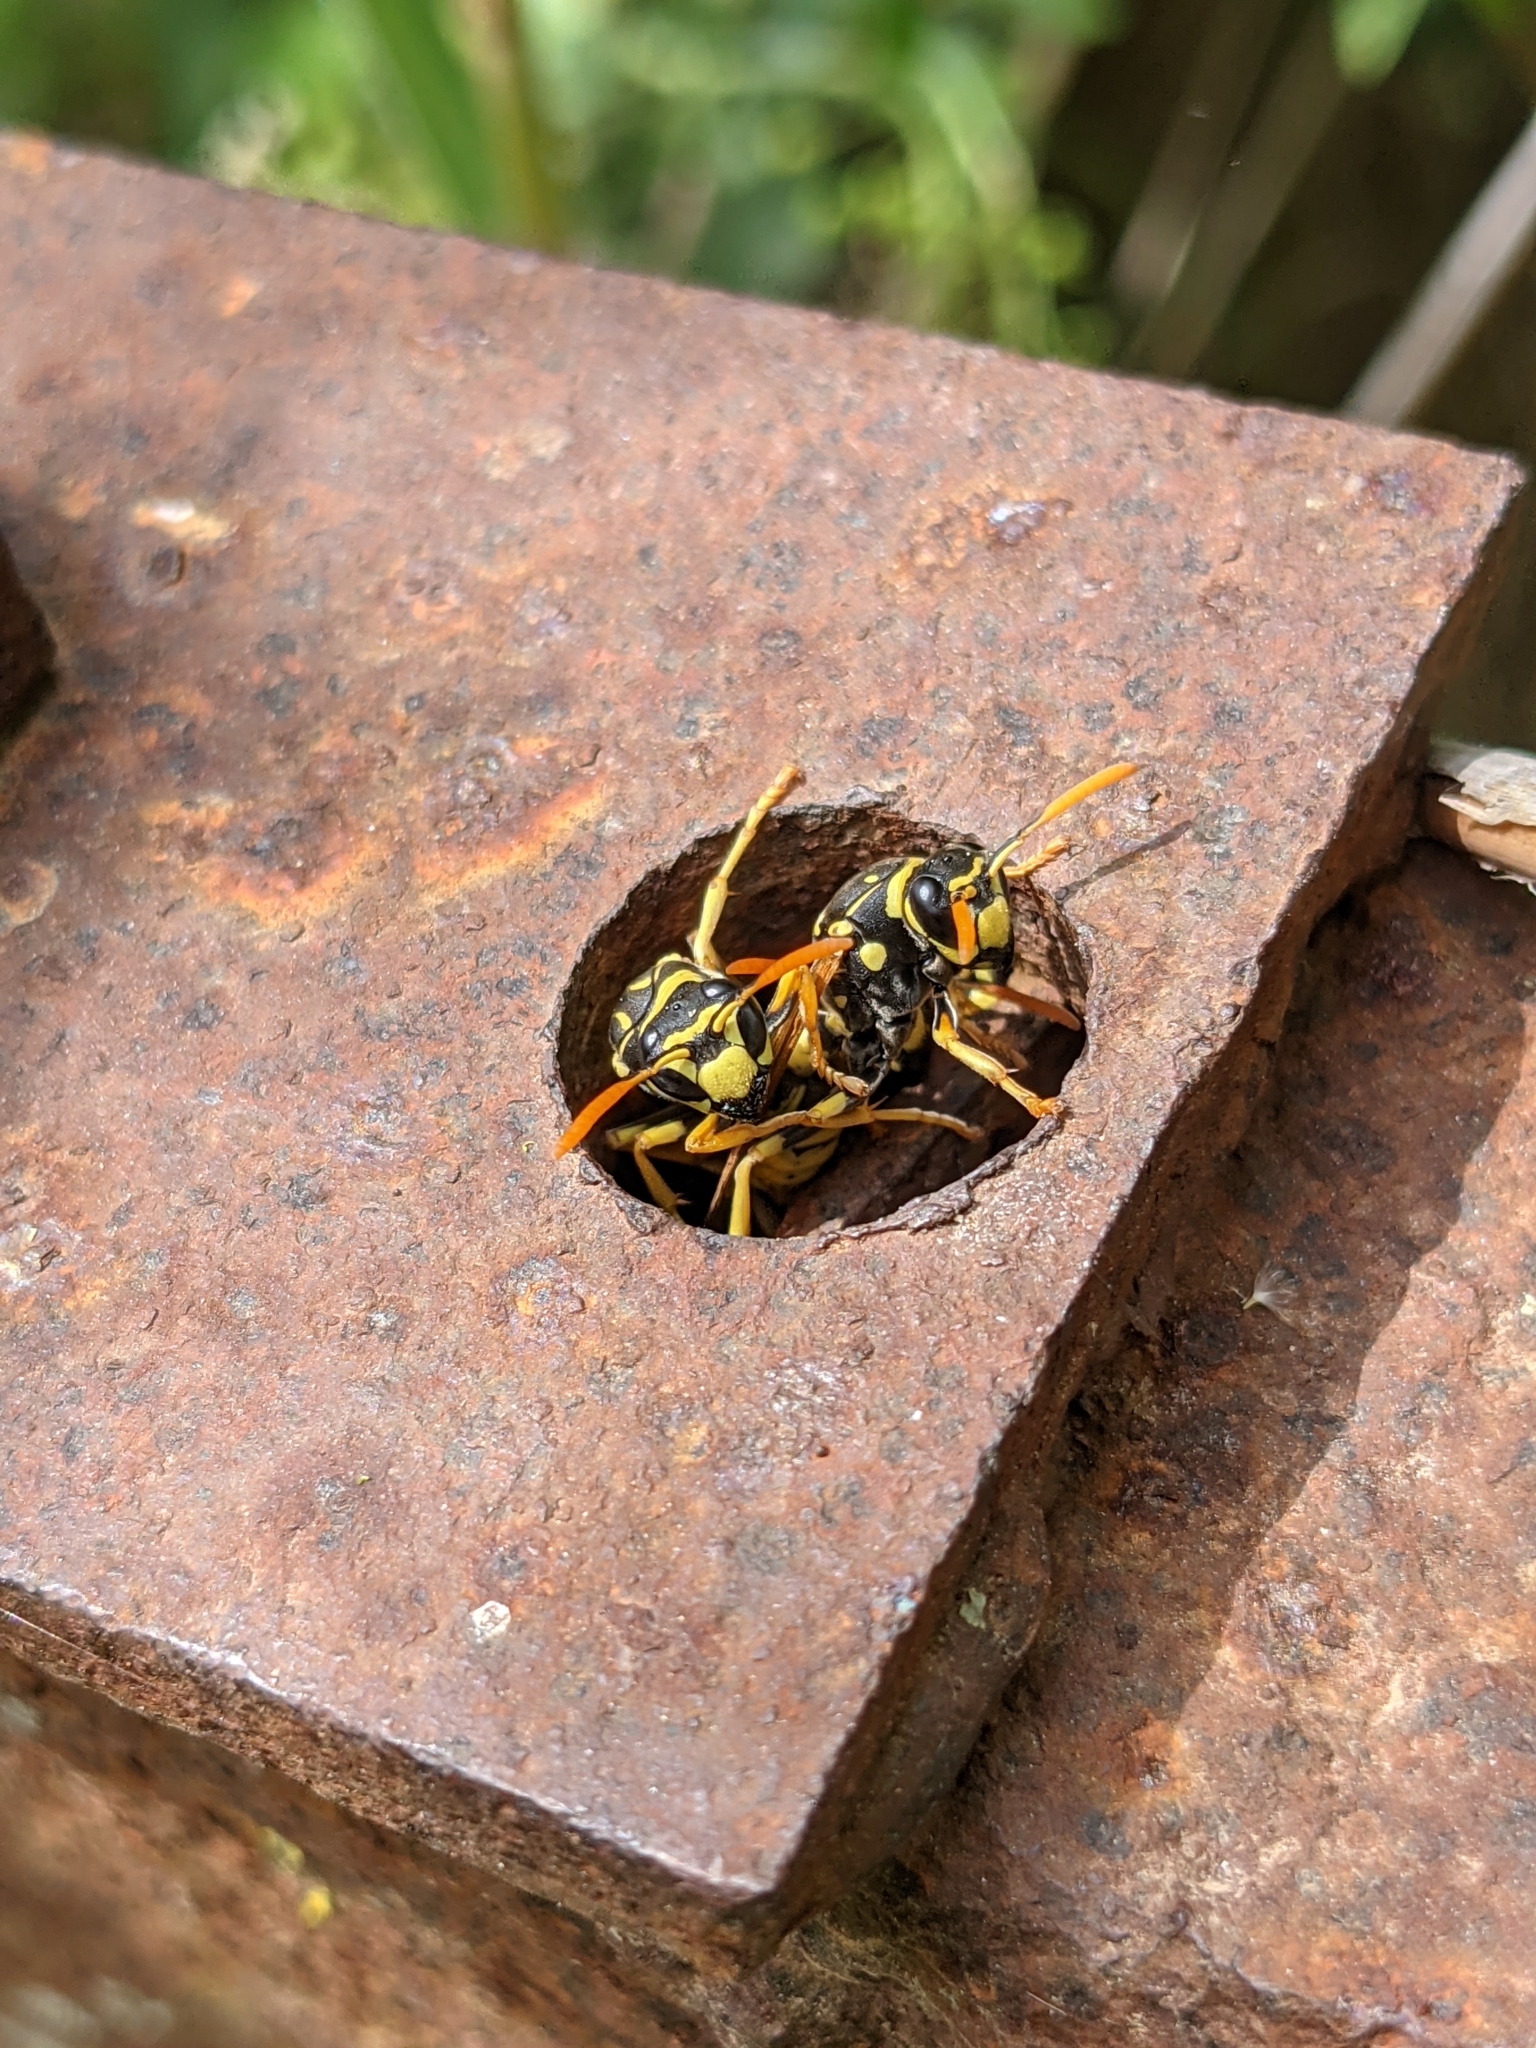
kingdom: Animalia
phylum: Arthropoda
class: Insecta
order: Hymenoptera
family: Eumenidae
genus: Polistes
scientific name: Polistes dominula
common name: Paper wasp
